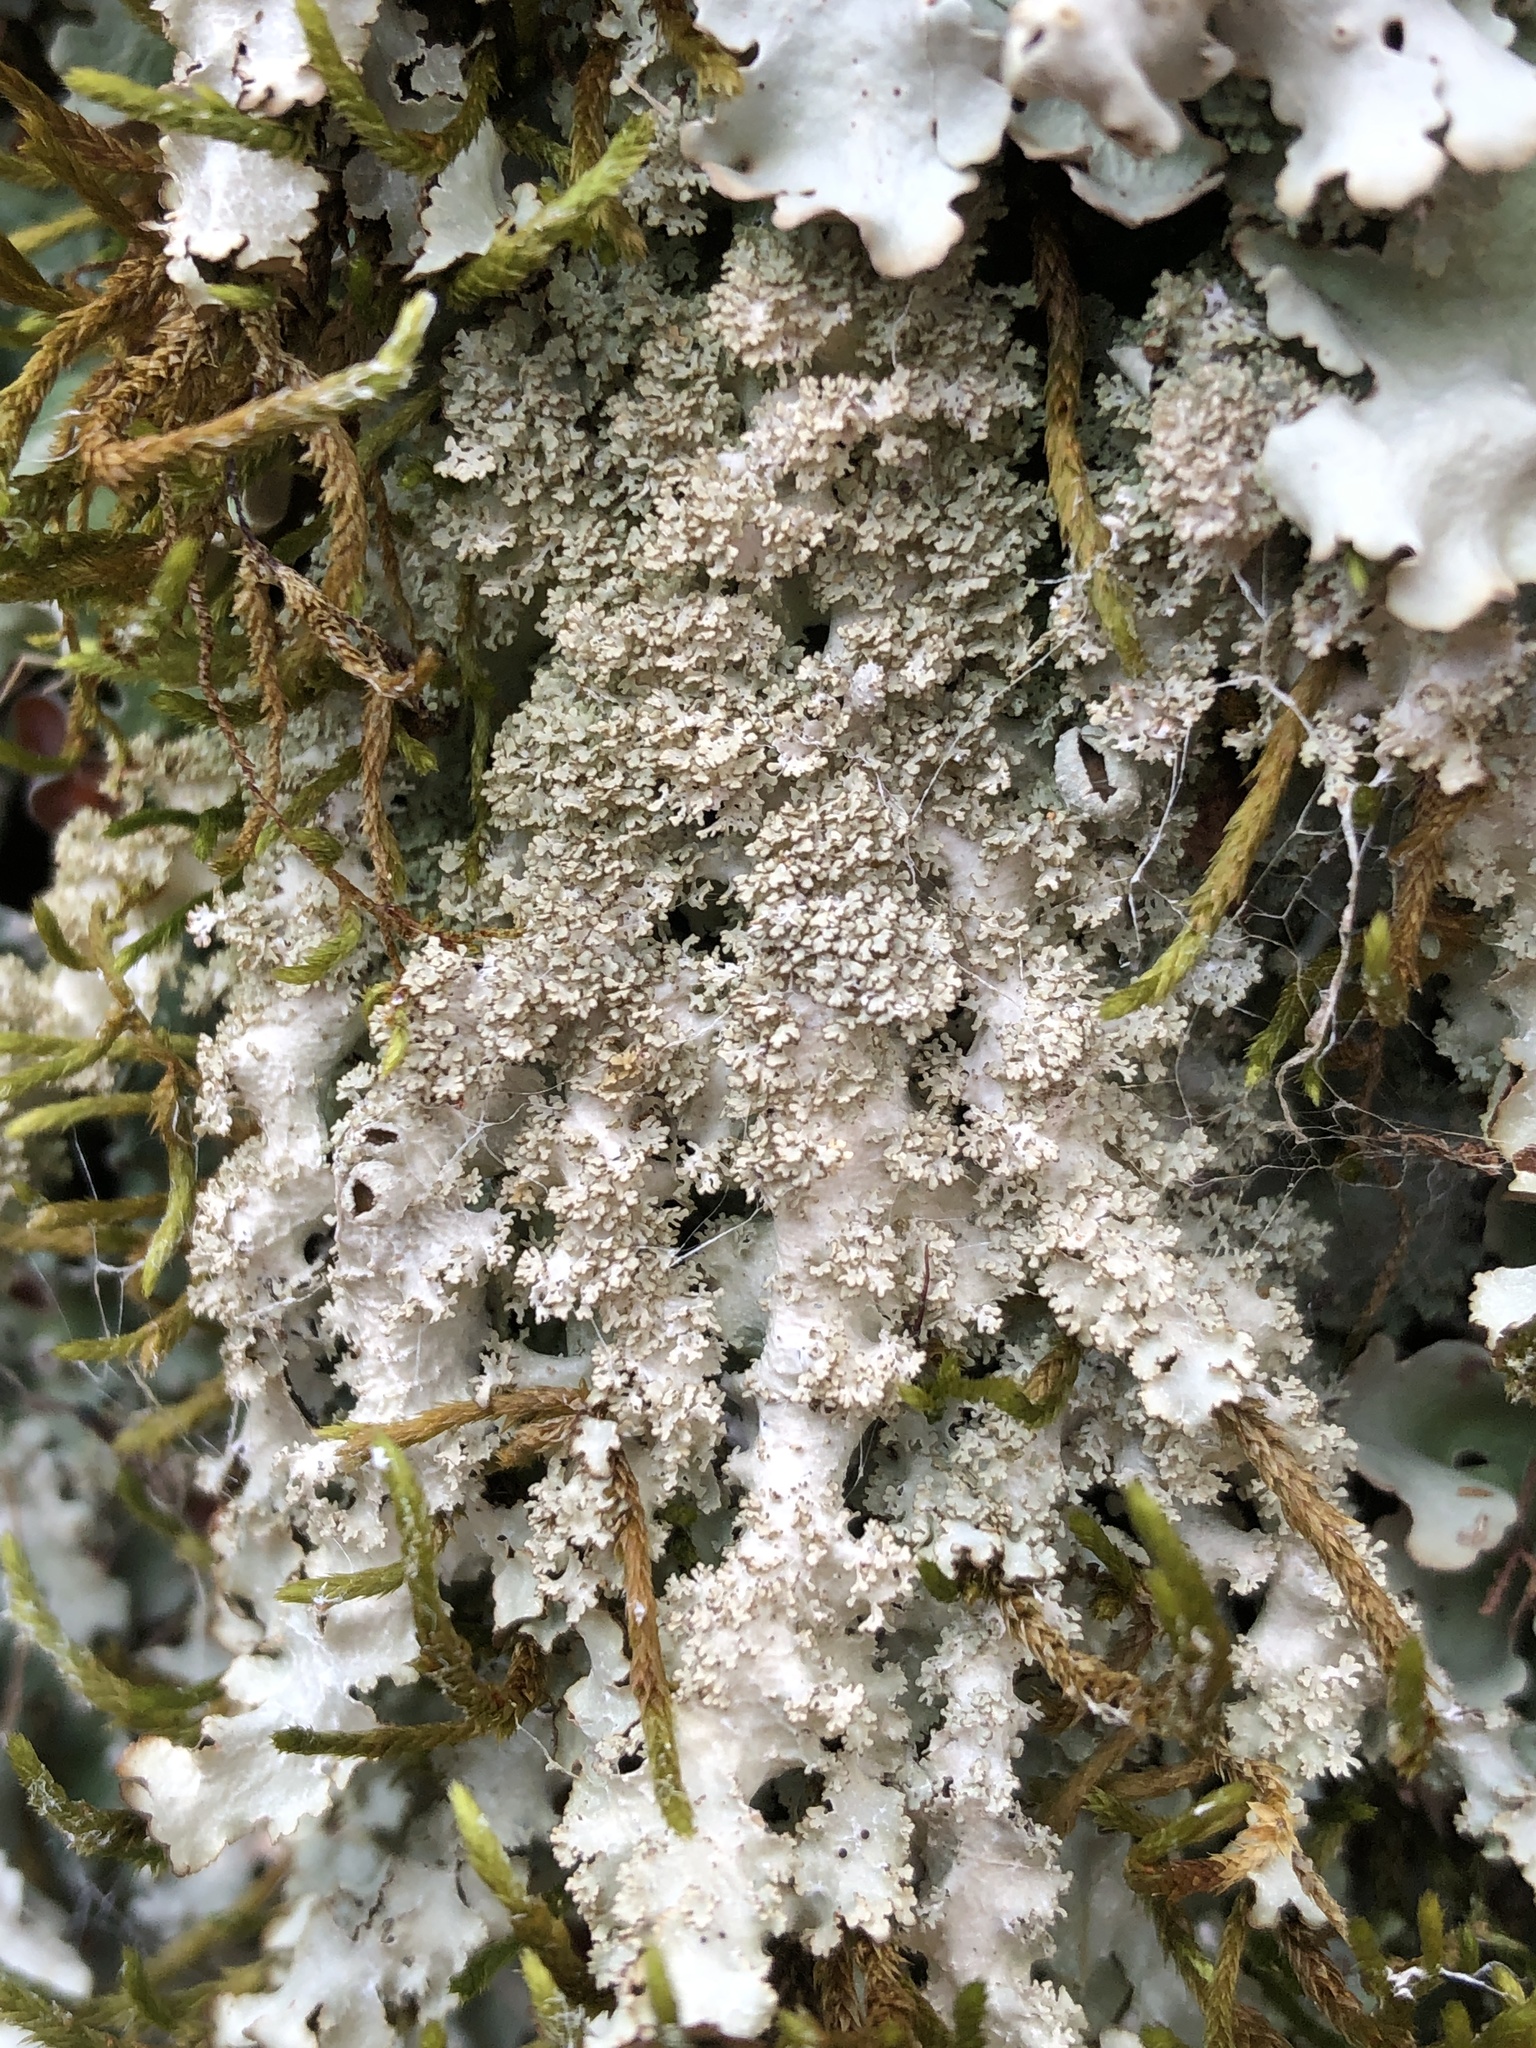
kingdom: Fungi
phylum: Ascomycota
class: Lecanoromycetes
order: Lecanorales
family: Parmeliaceae
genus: Punctelia
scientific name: Punctelia appalachensis
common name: Appalaches appalachian speckled shield lichen
